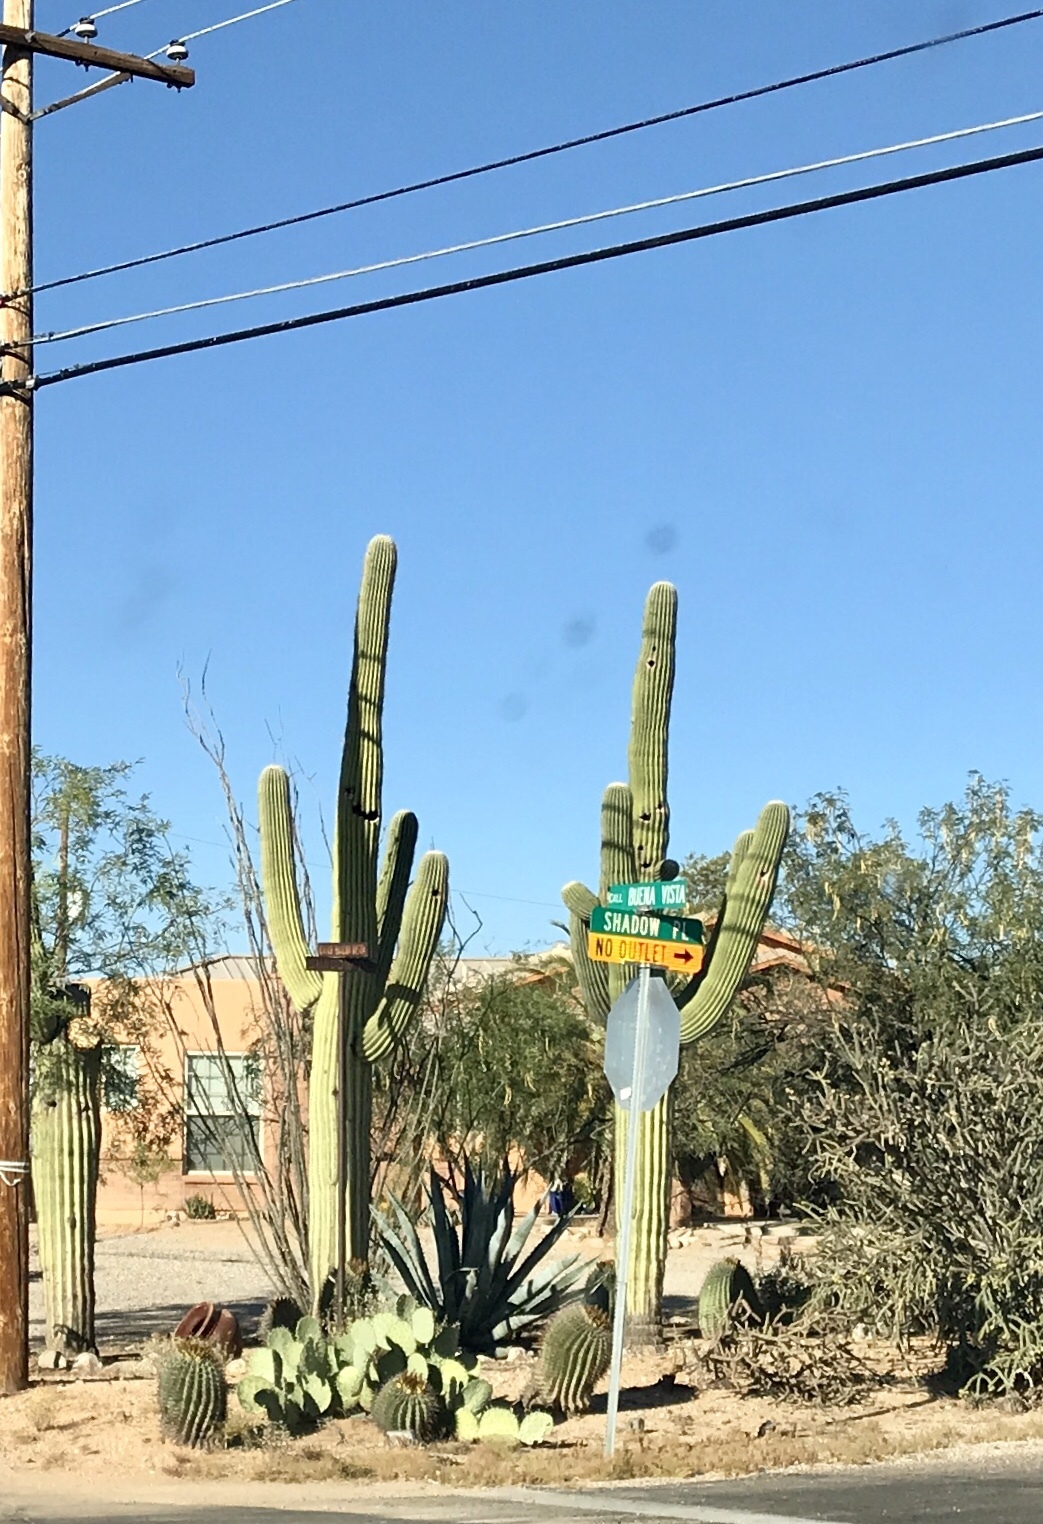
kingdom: Plantae
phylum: Tracheophyta
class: Magnoliopsida
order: Caryophyllales
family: Cactaceae
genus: Carnegiea
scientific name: Carnegiea gigantea
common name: Saguaro
